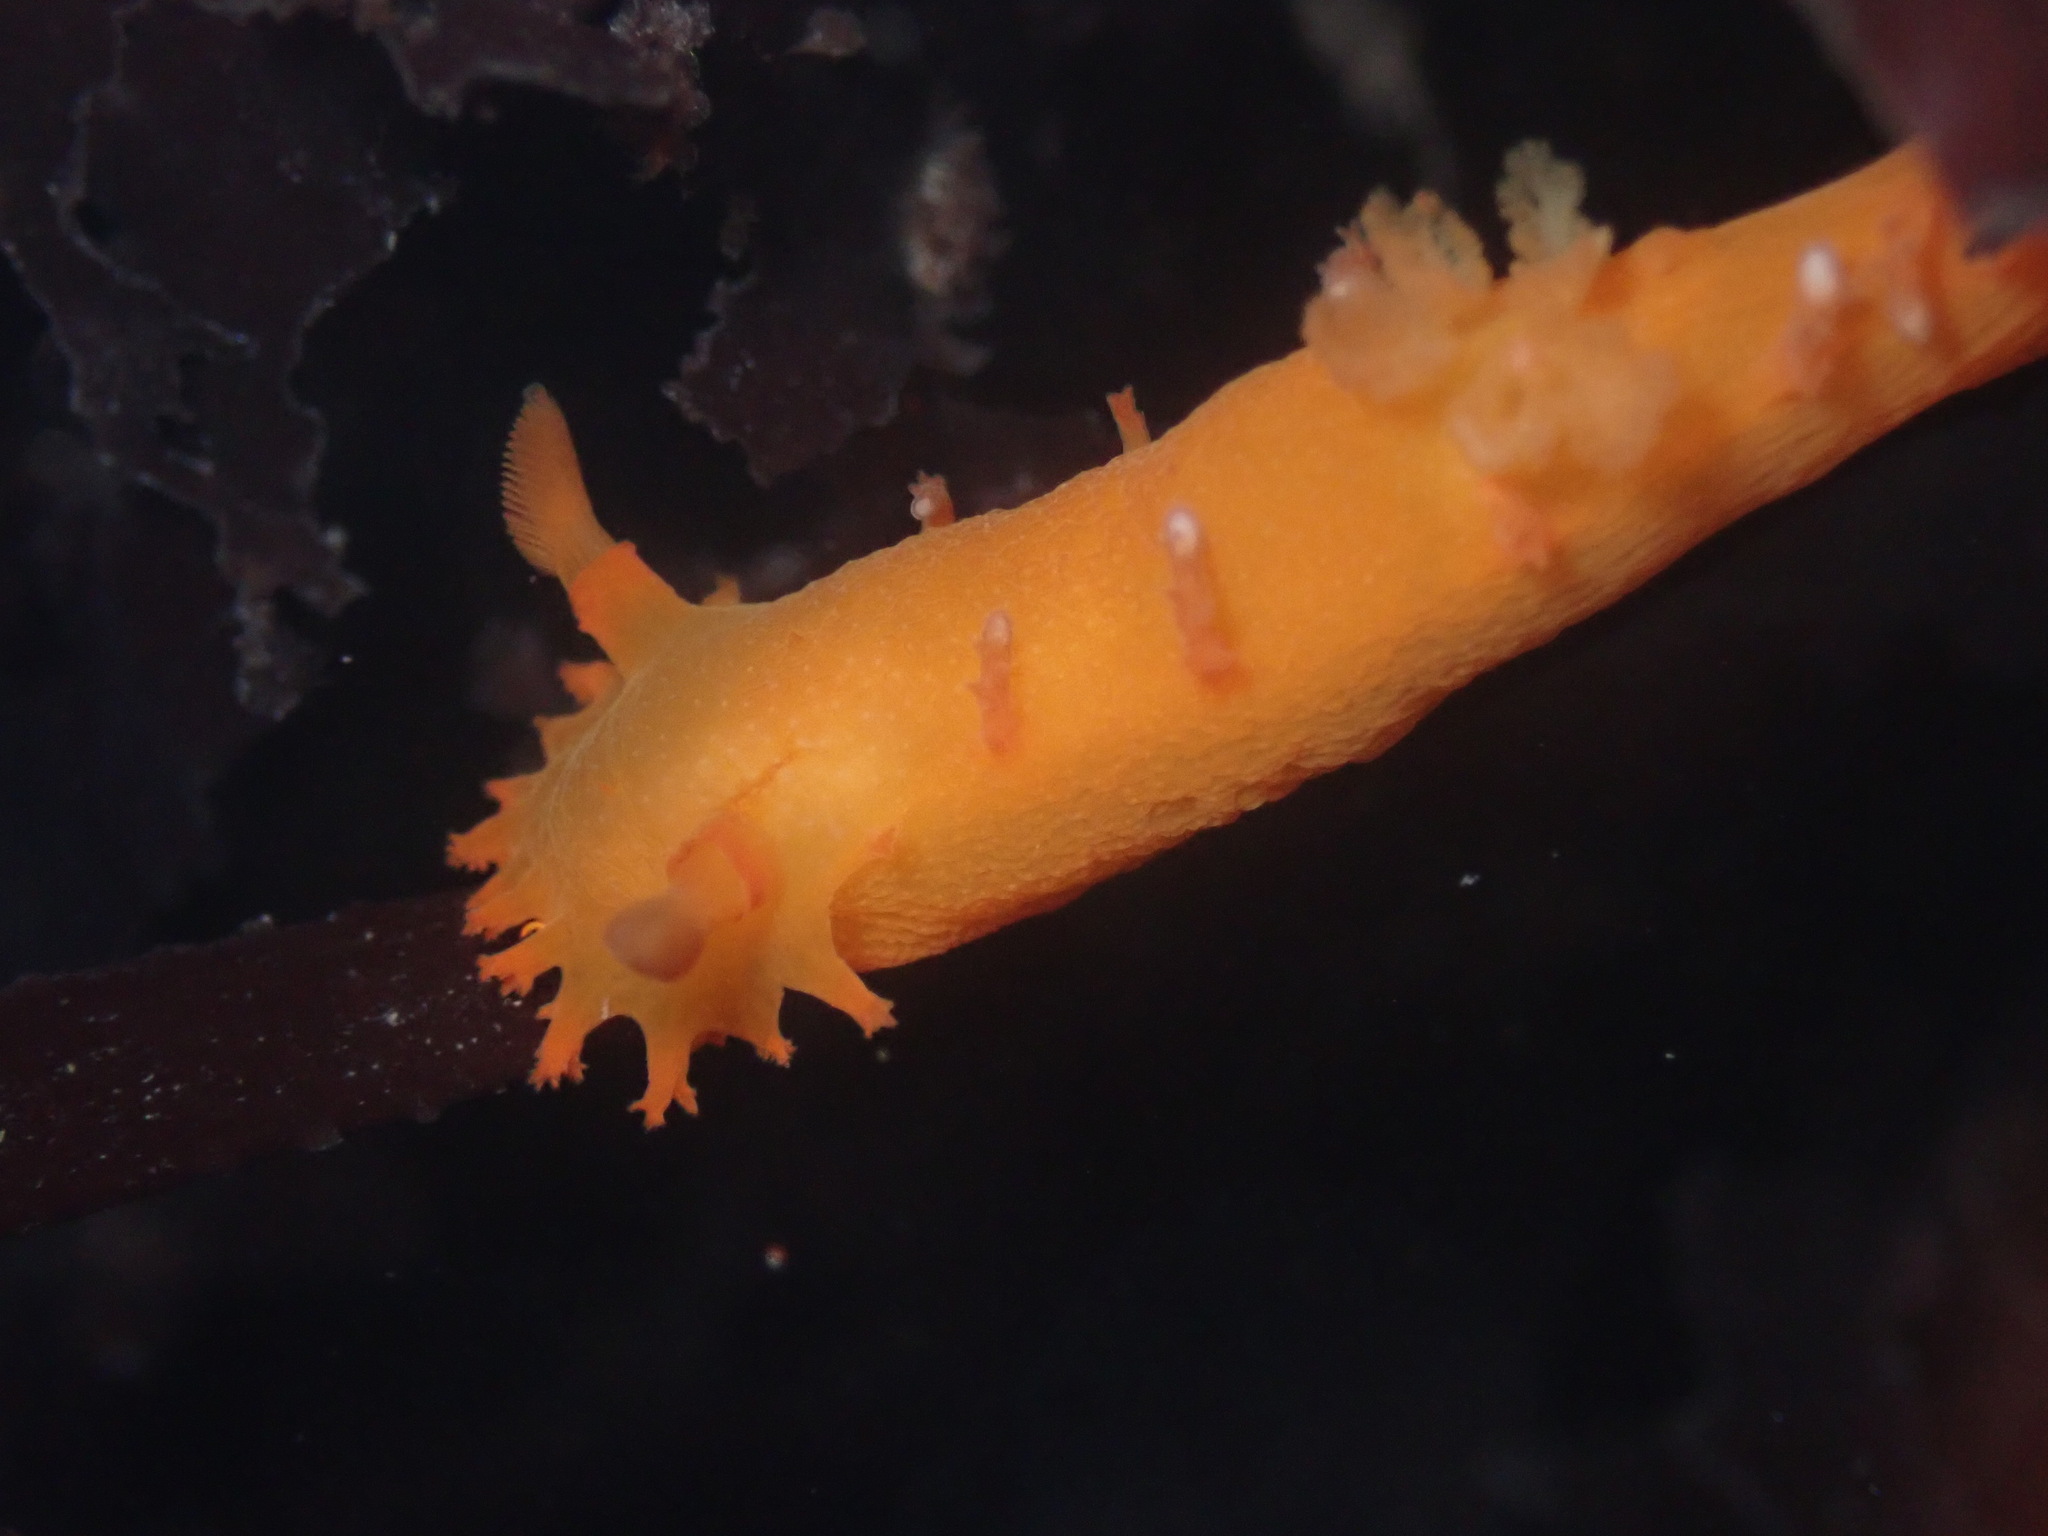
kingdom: Animalia
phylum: Mollusca
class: Gastropoda
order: Nudibranchia
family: Polyceridae
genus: Triopha
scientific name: Triopha maculata
